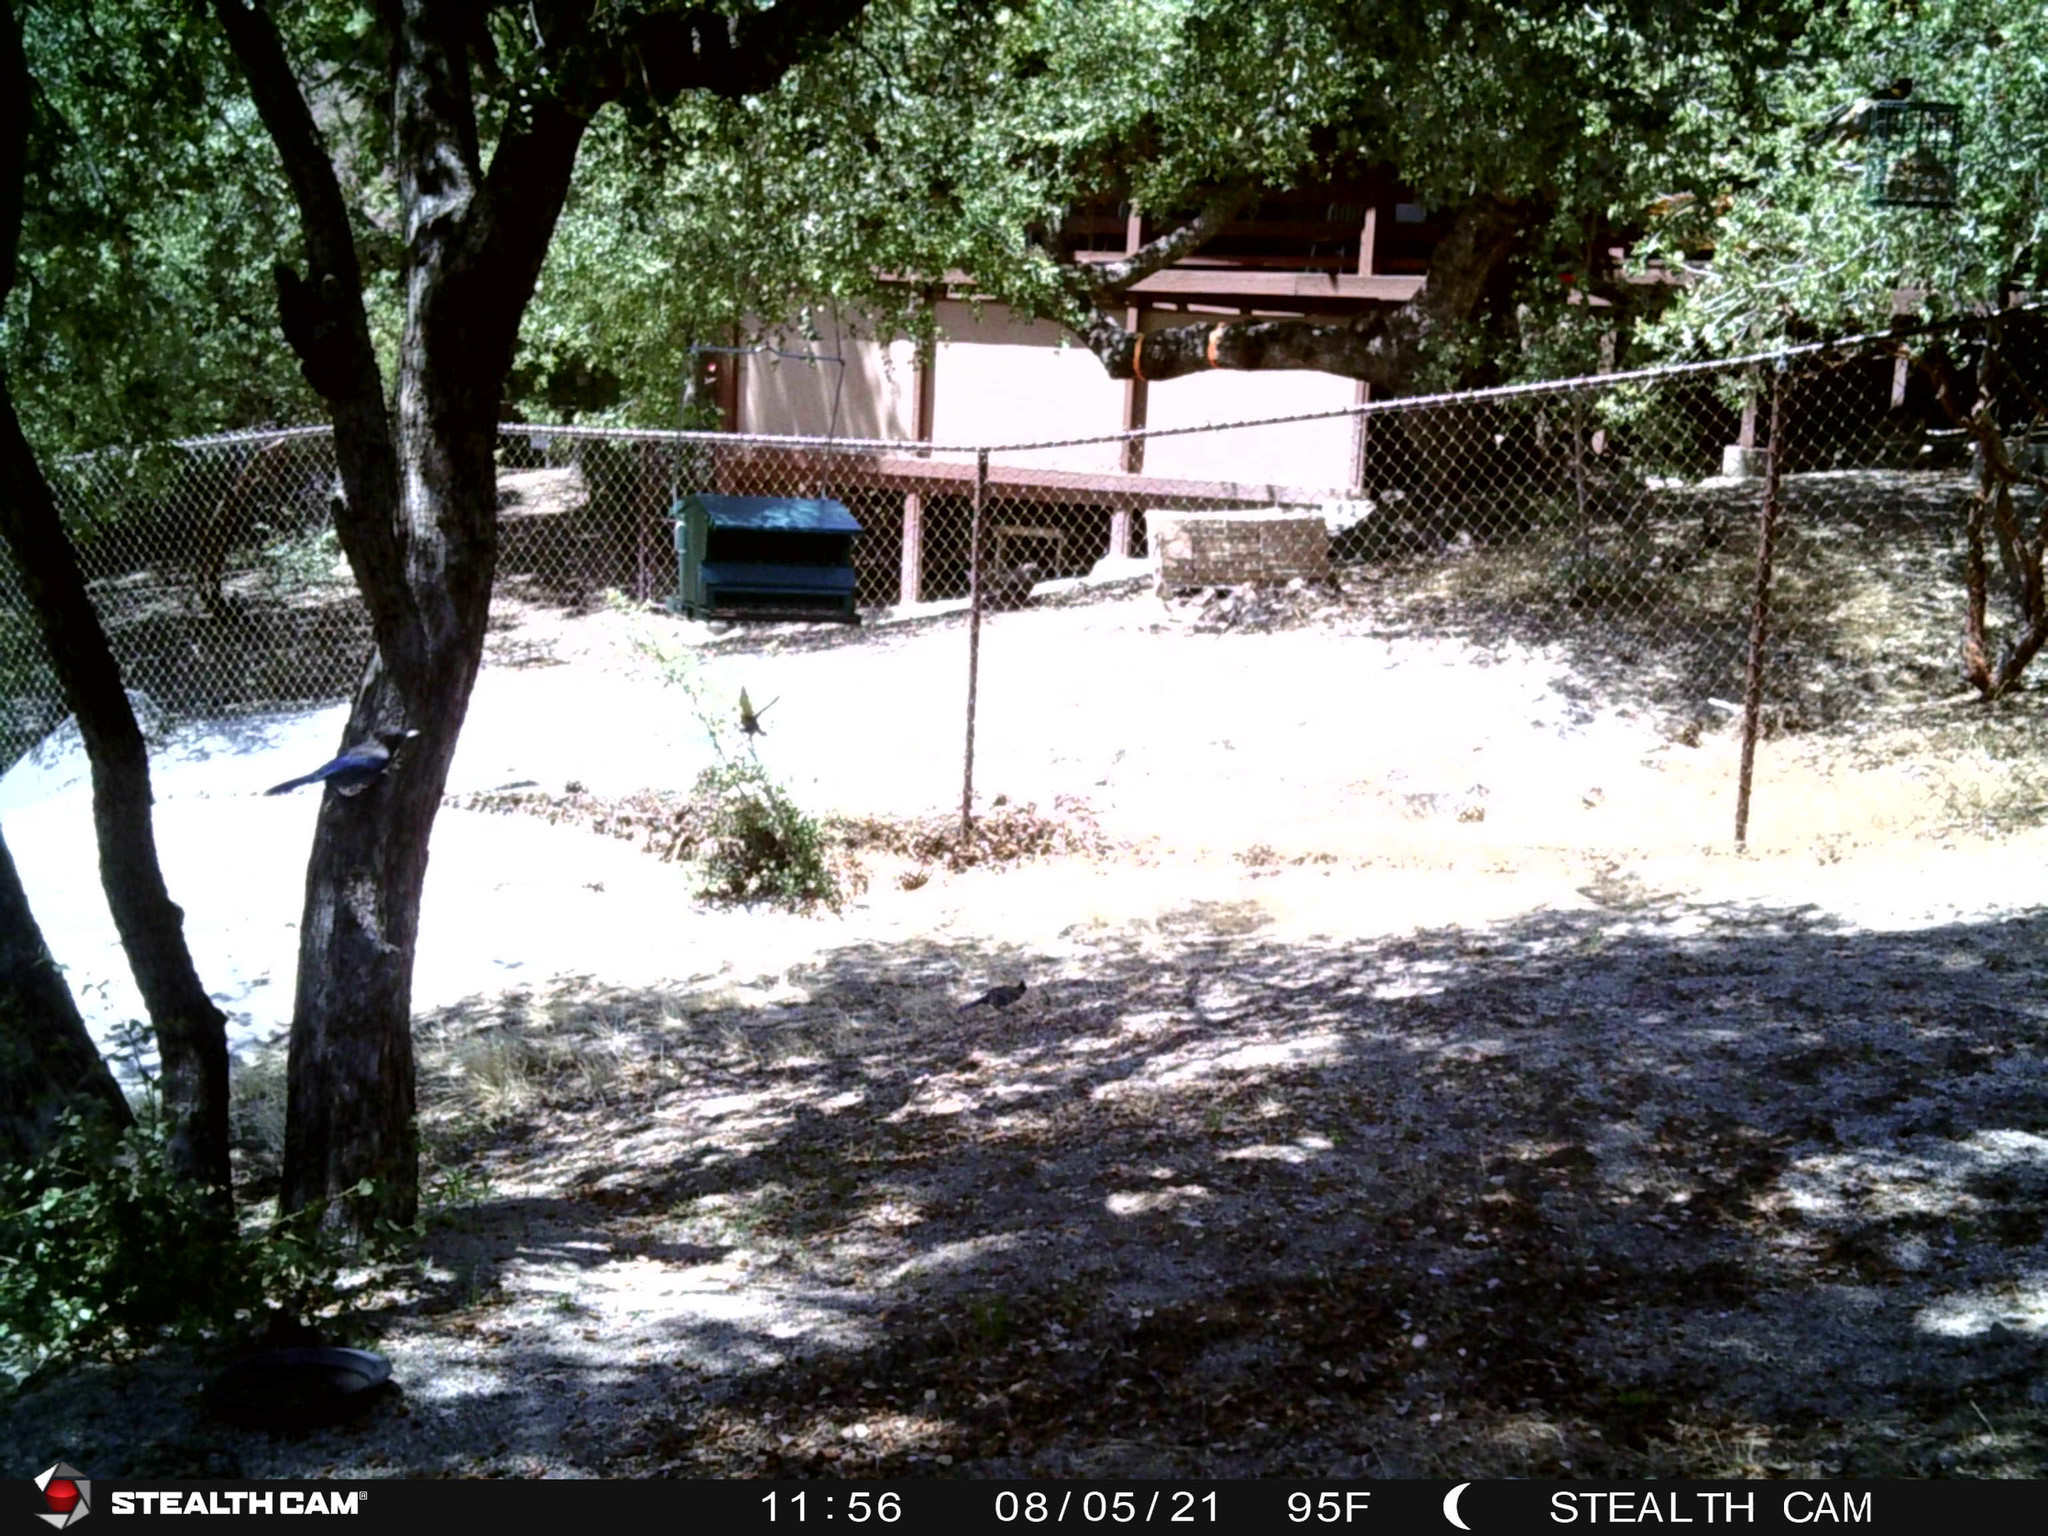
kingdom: Animalia
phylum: Chordata
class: Aves
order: Passeriformes
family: Cardinalidae
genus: Pheucticus
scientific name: Pheucticus melanocephalus
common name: Black-headed grosbeak
